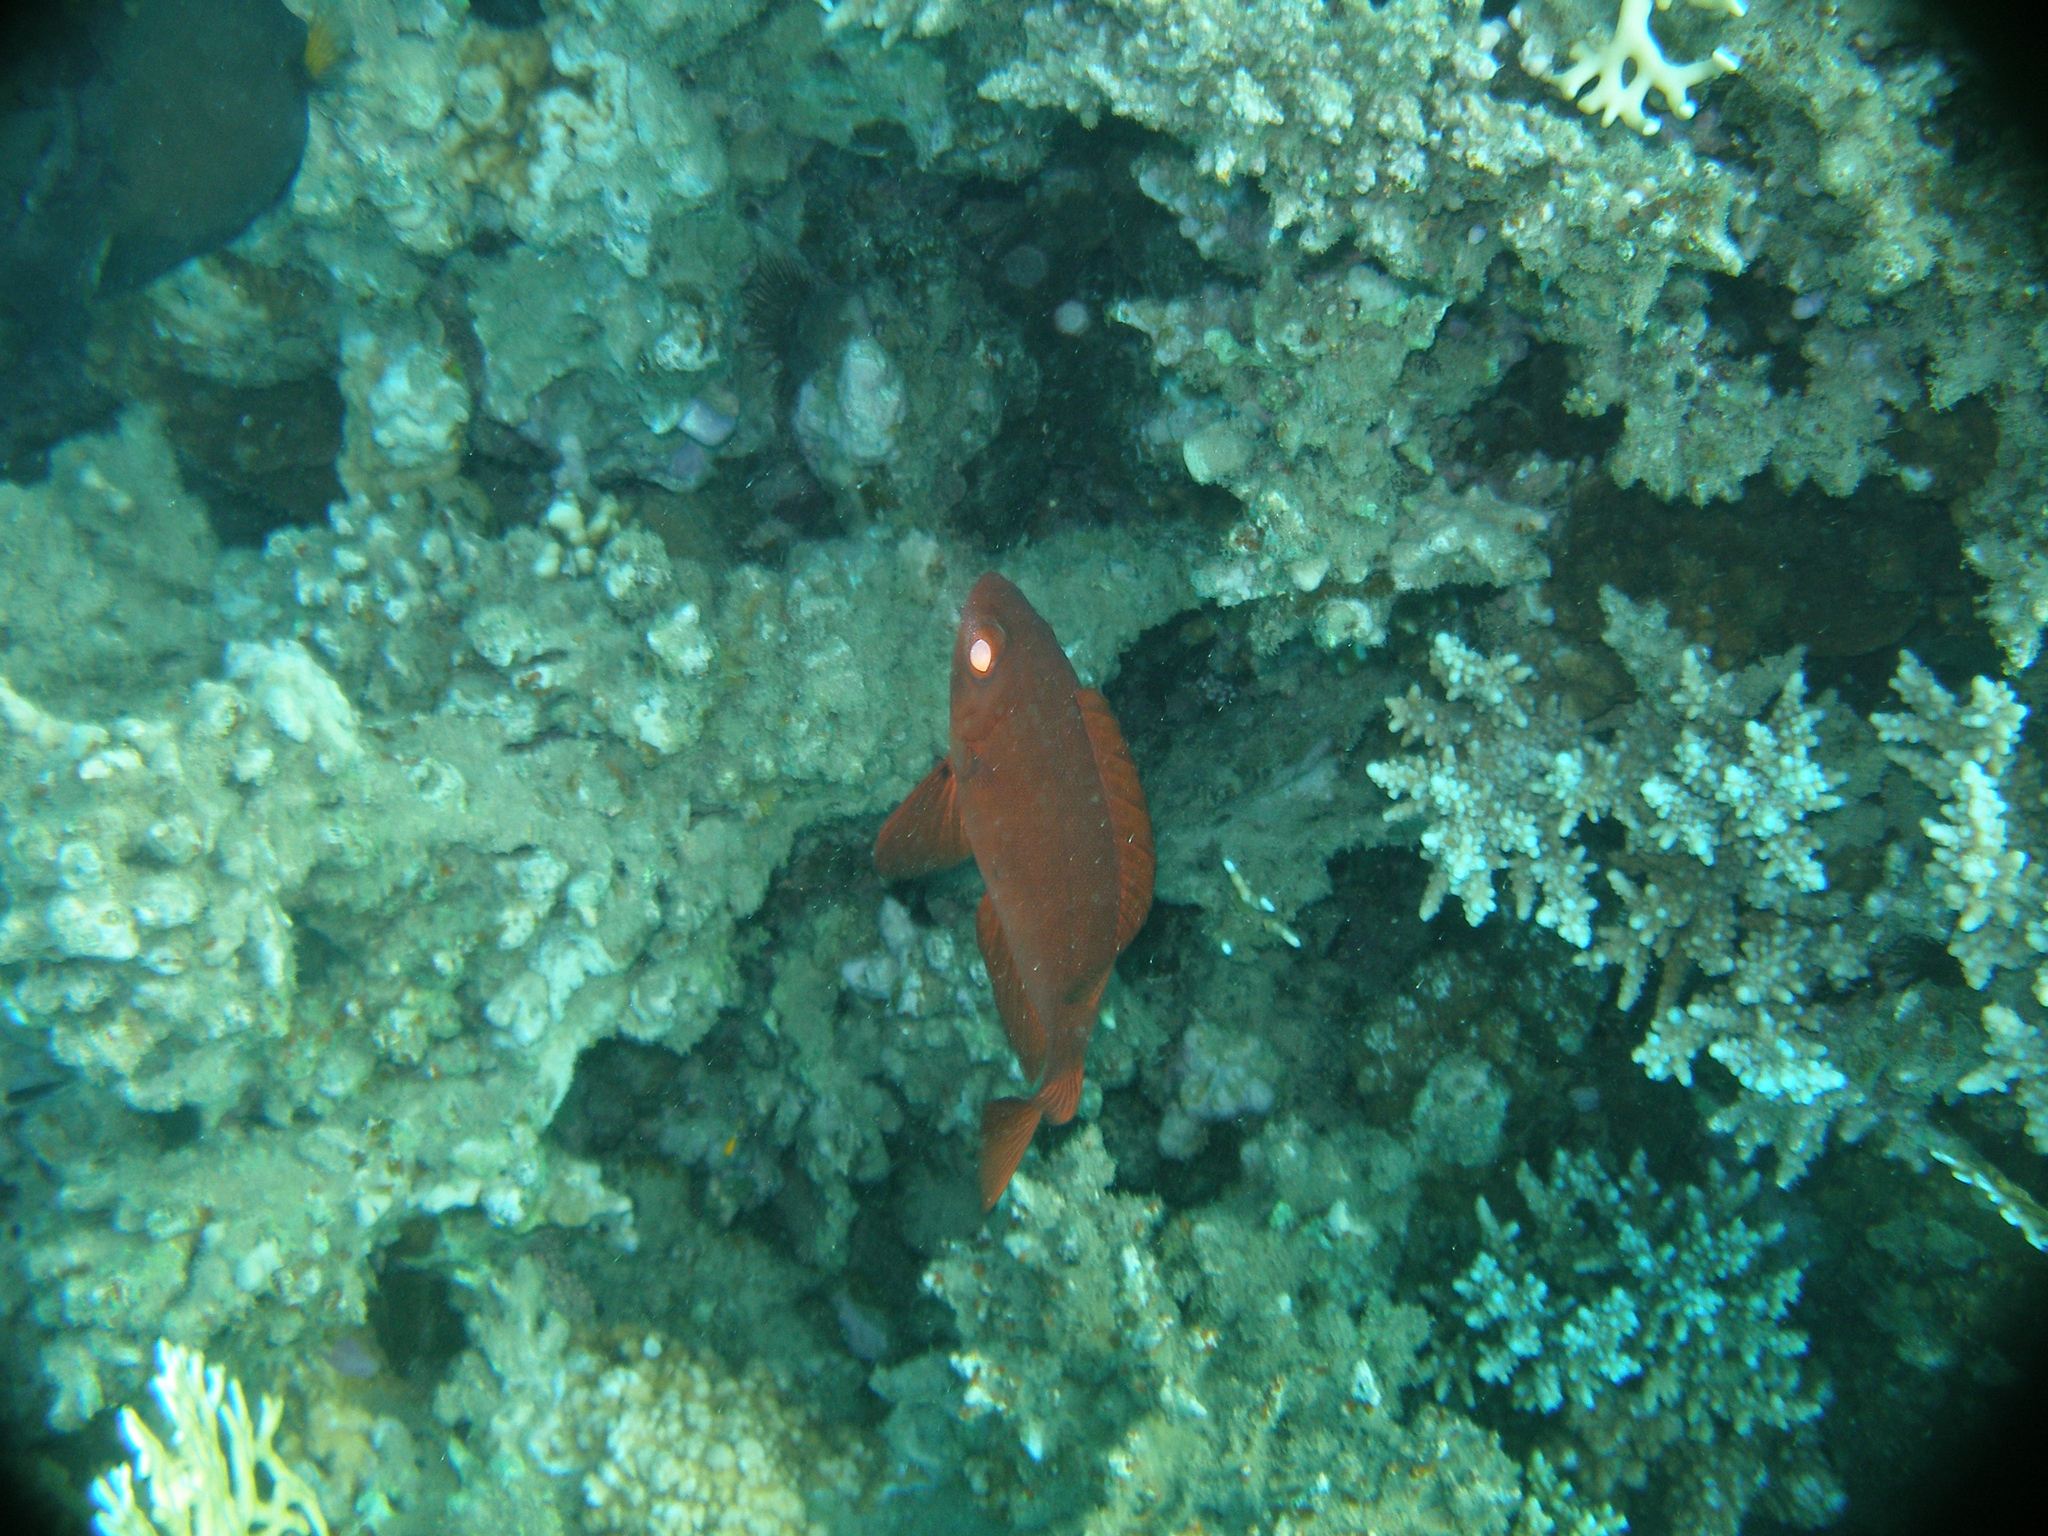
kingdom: Animalia
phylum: Chordata
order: Perciformes
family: Priacanthidae
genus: Priacanthus
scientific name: Priacanthus
